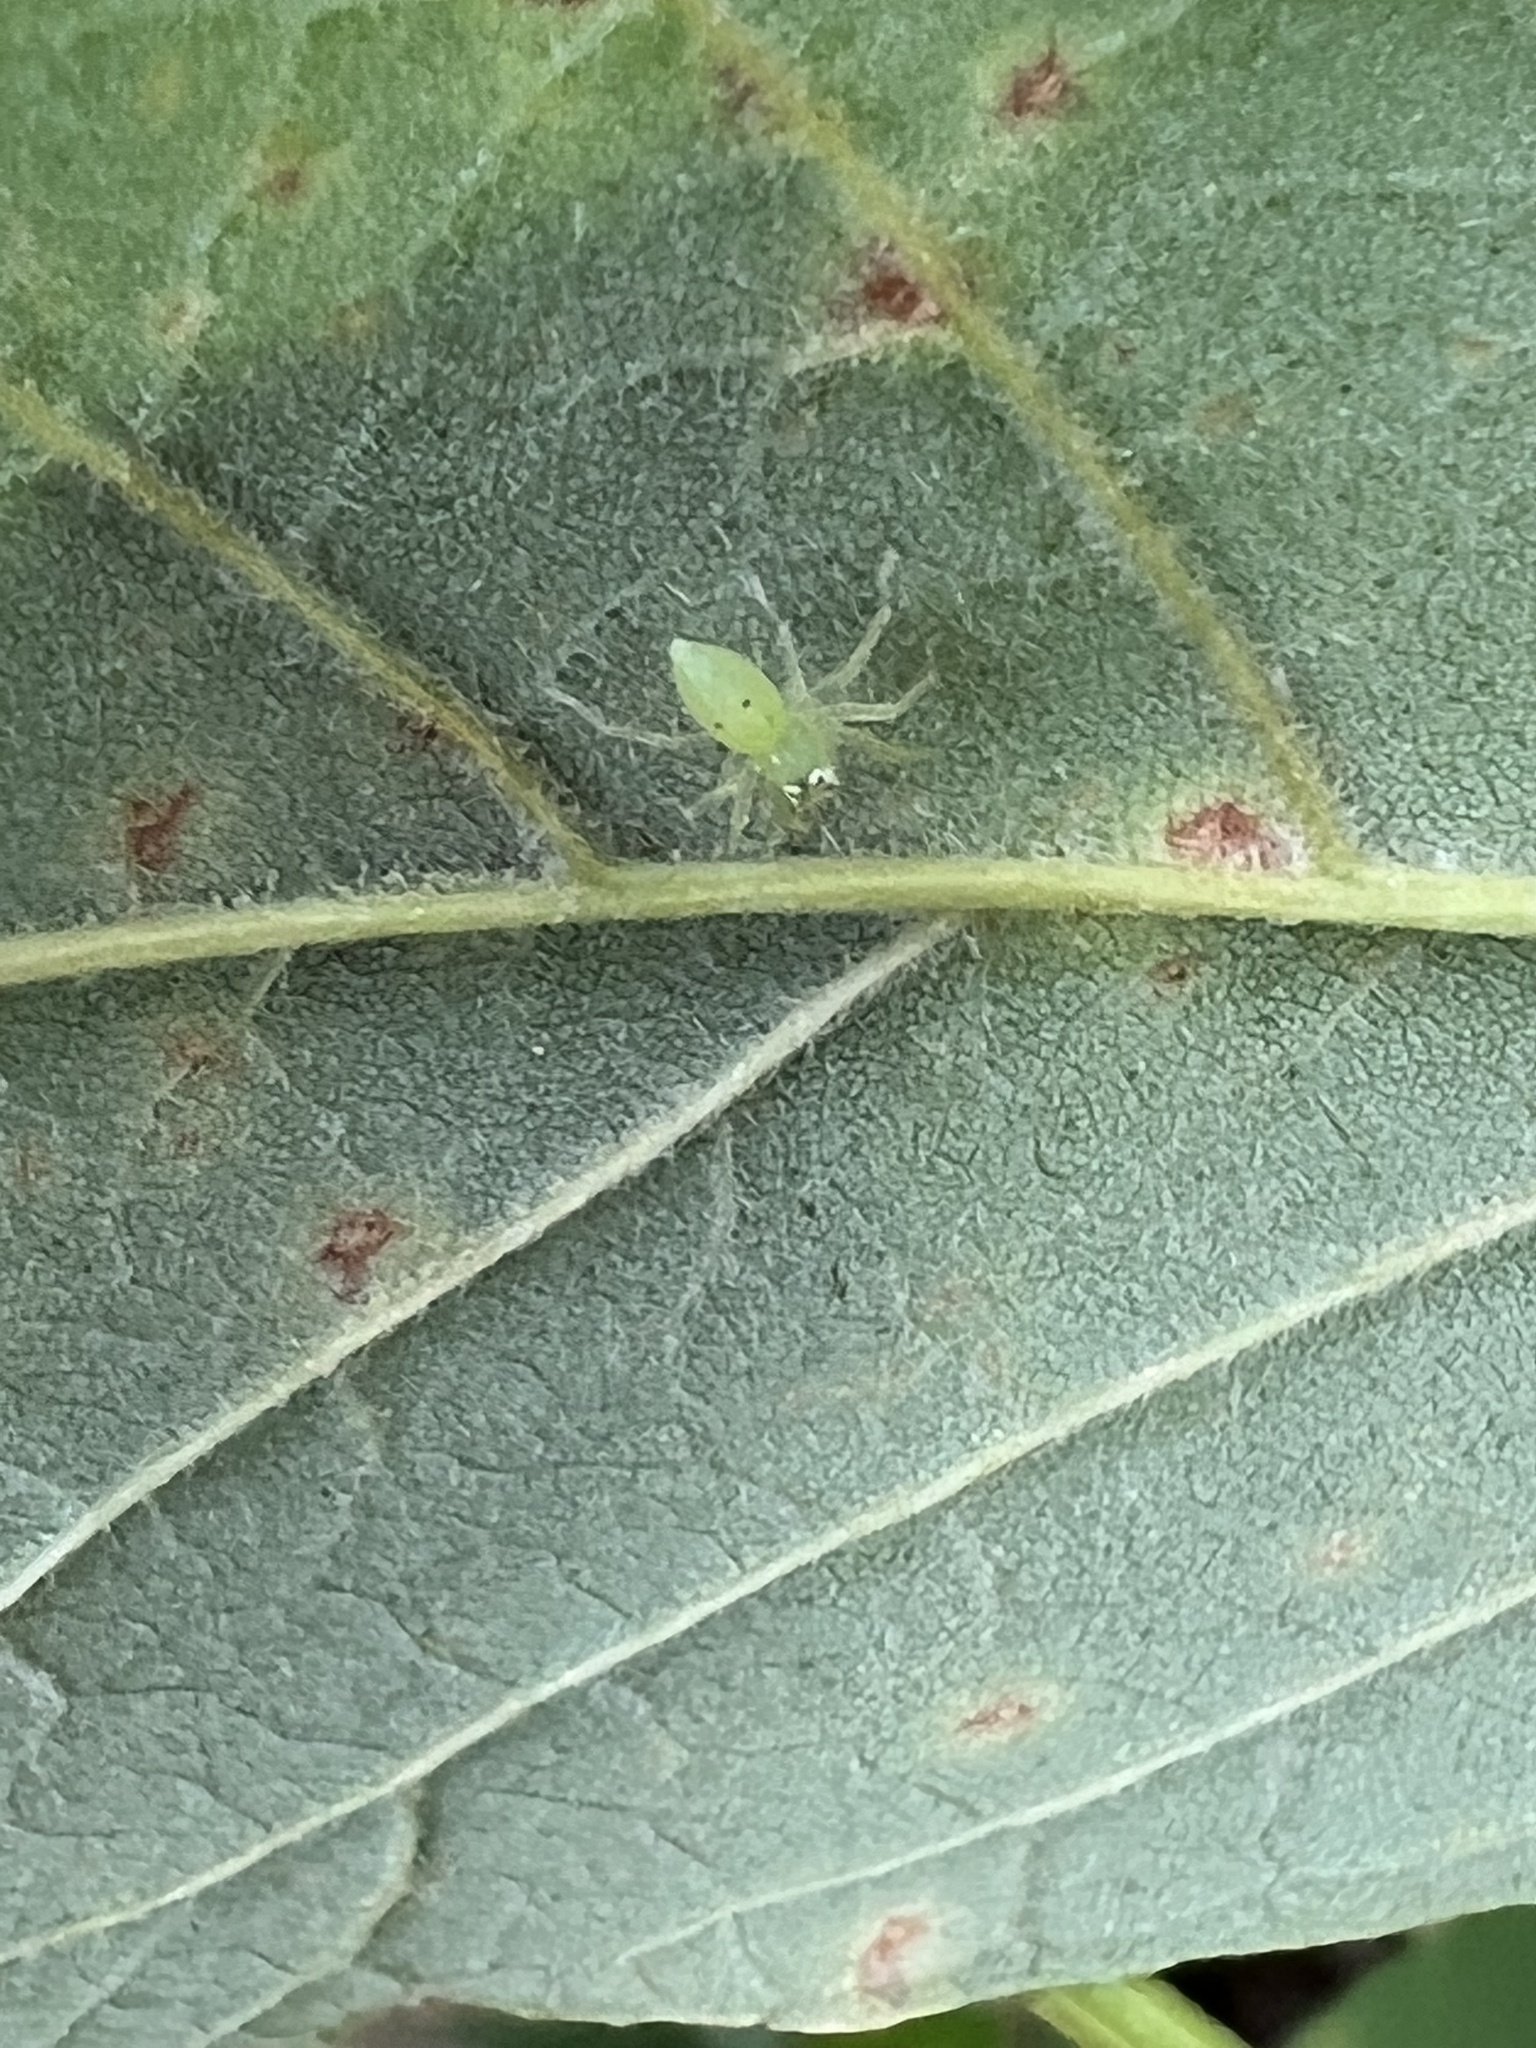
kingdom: Animalia
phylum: Arthropoda
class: Arachnida
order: Araneae
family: Salticidae
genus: Lyssomanes
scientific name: Lyssomanes viridis
